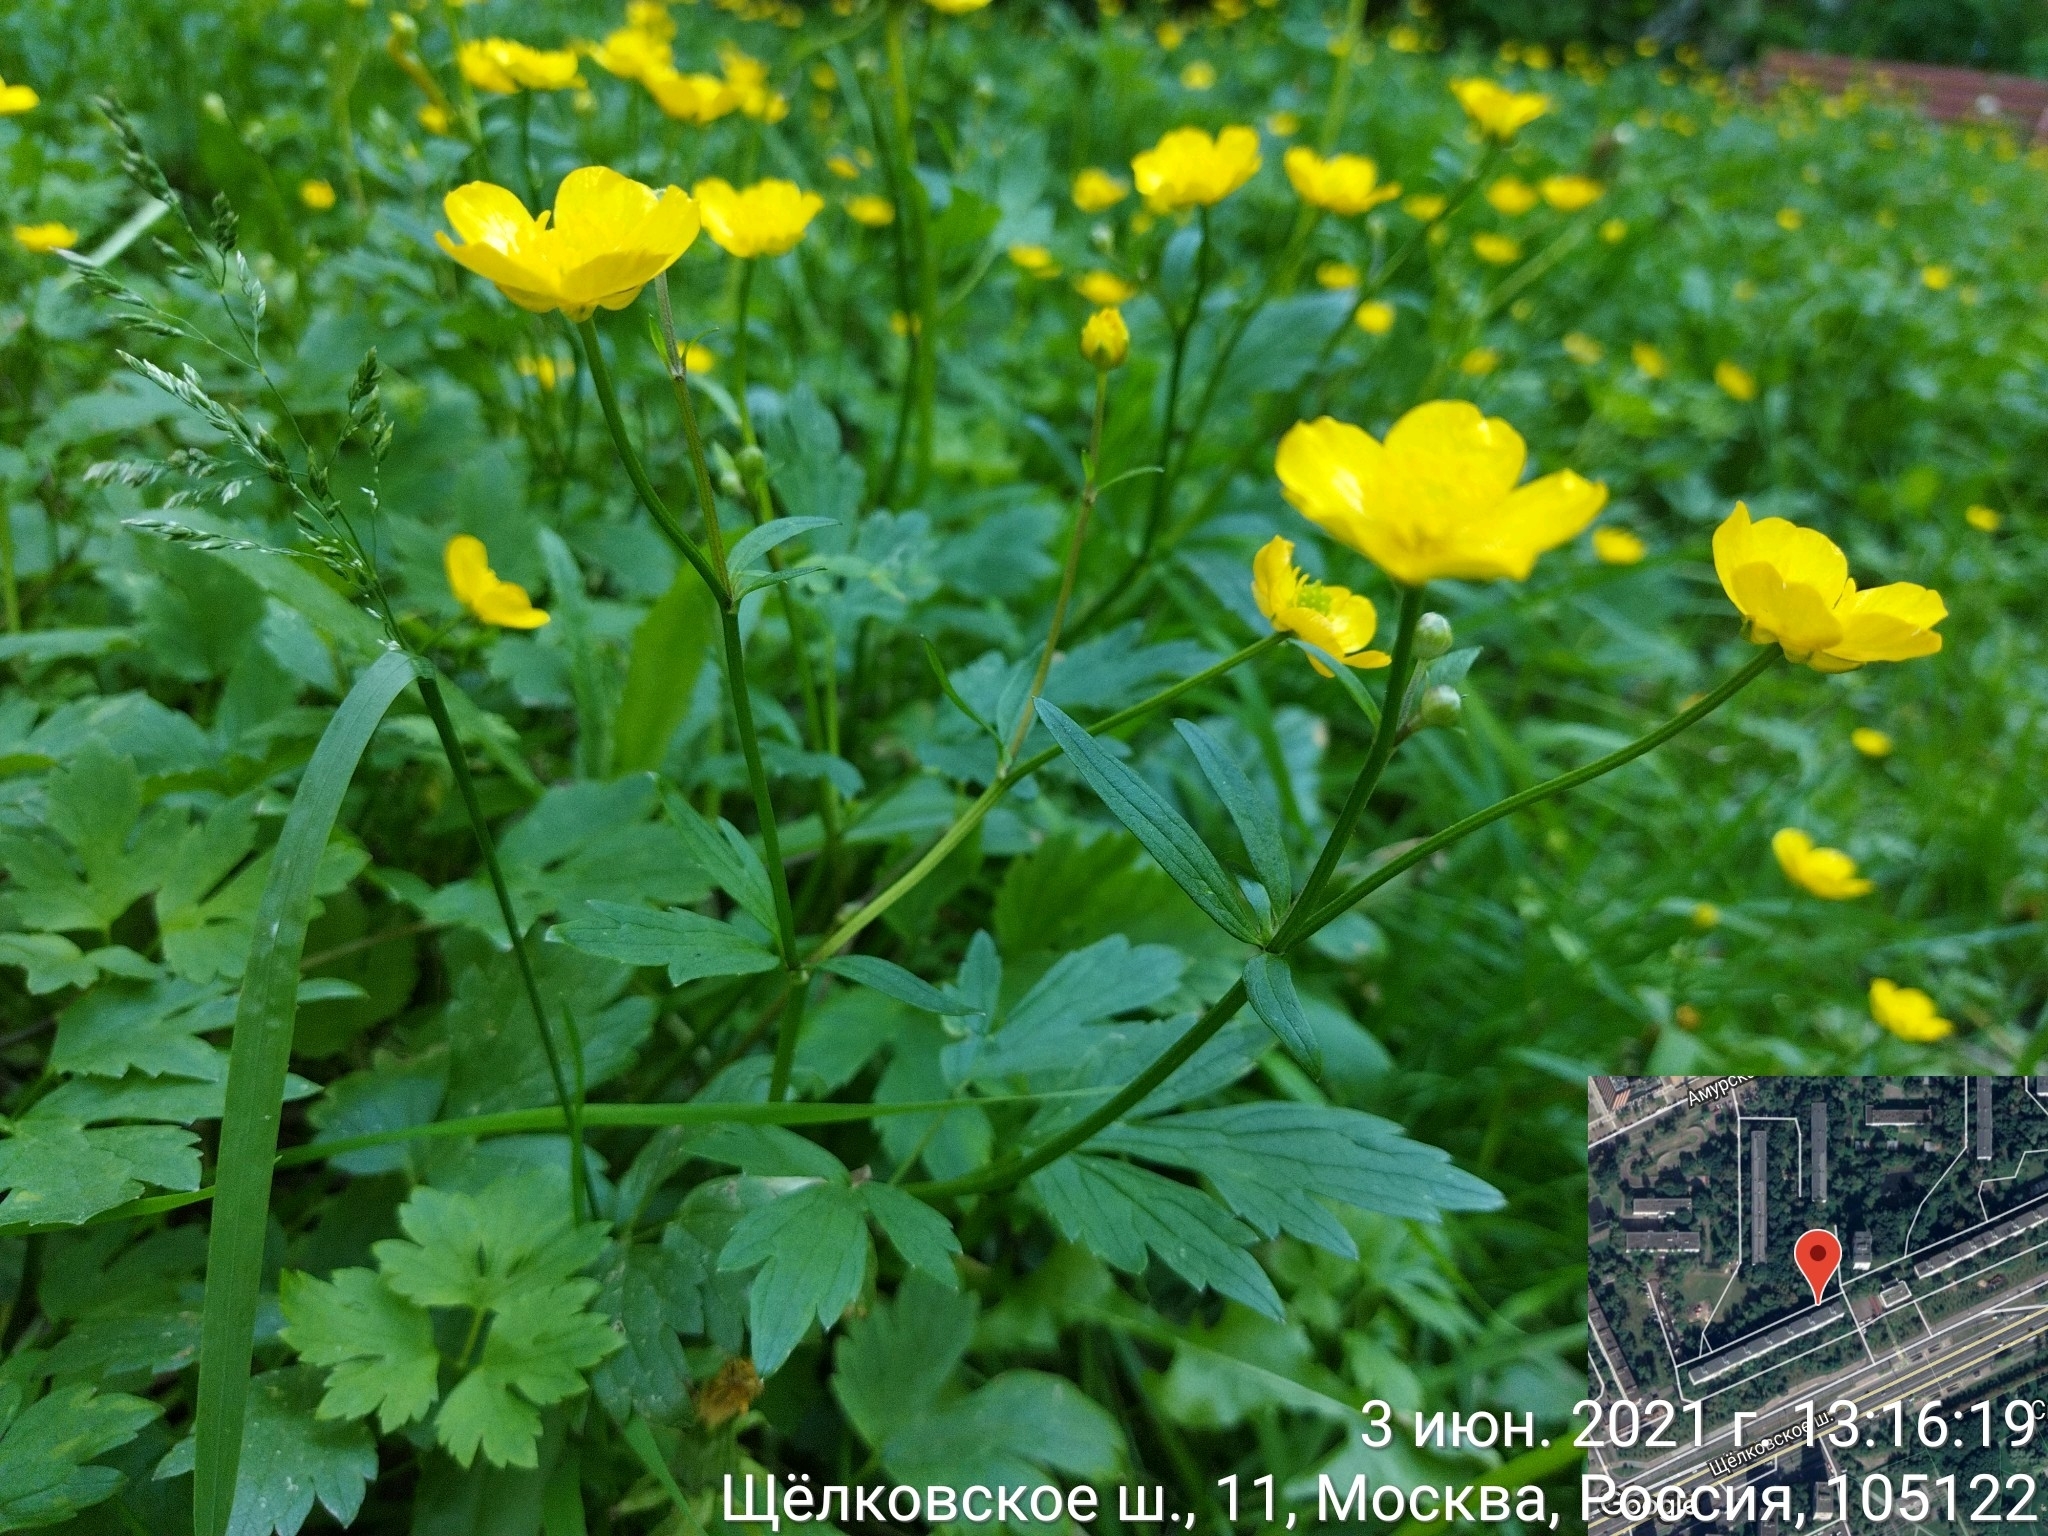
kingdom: Plantae
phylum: Tracheophyta
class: Magnoliopsida
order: Ranunculales
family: Ranunculaceae
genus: Ranunculus
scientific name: Ranunculus repens
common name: Creeping buttercup
